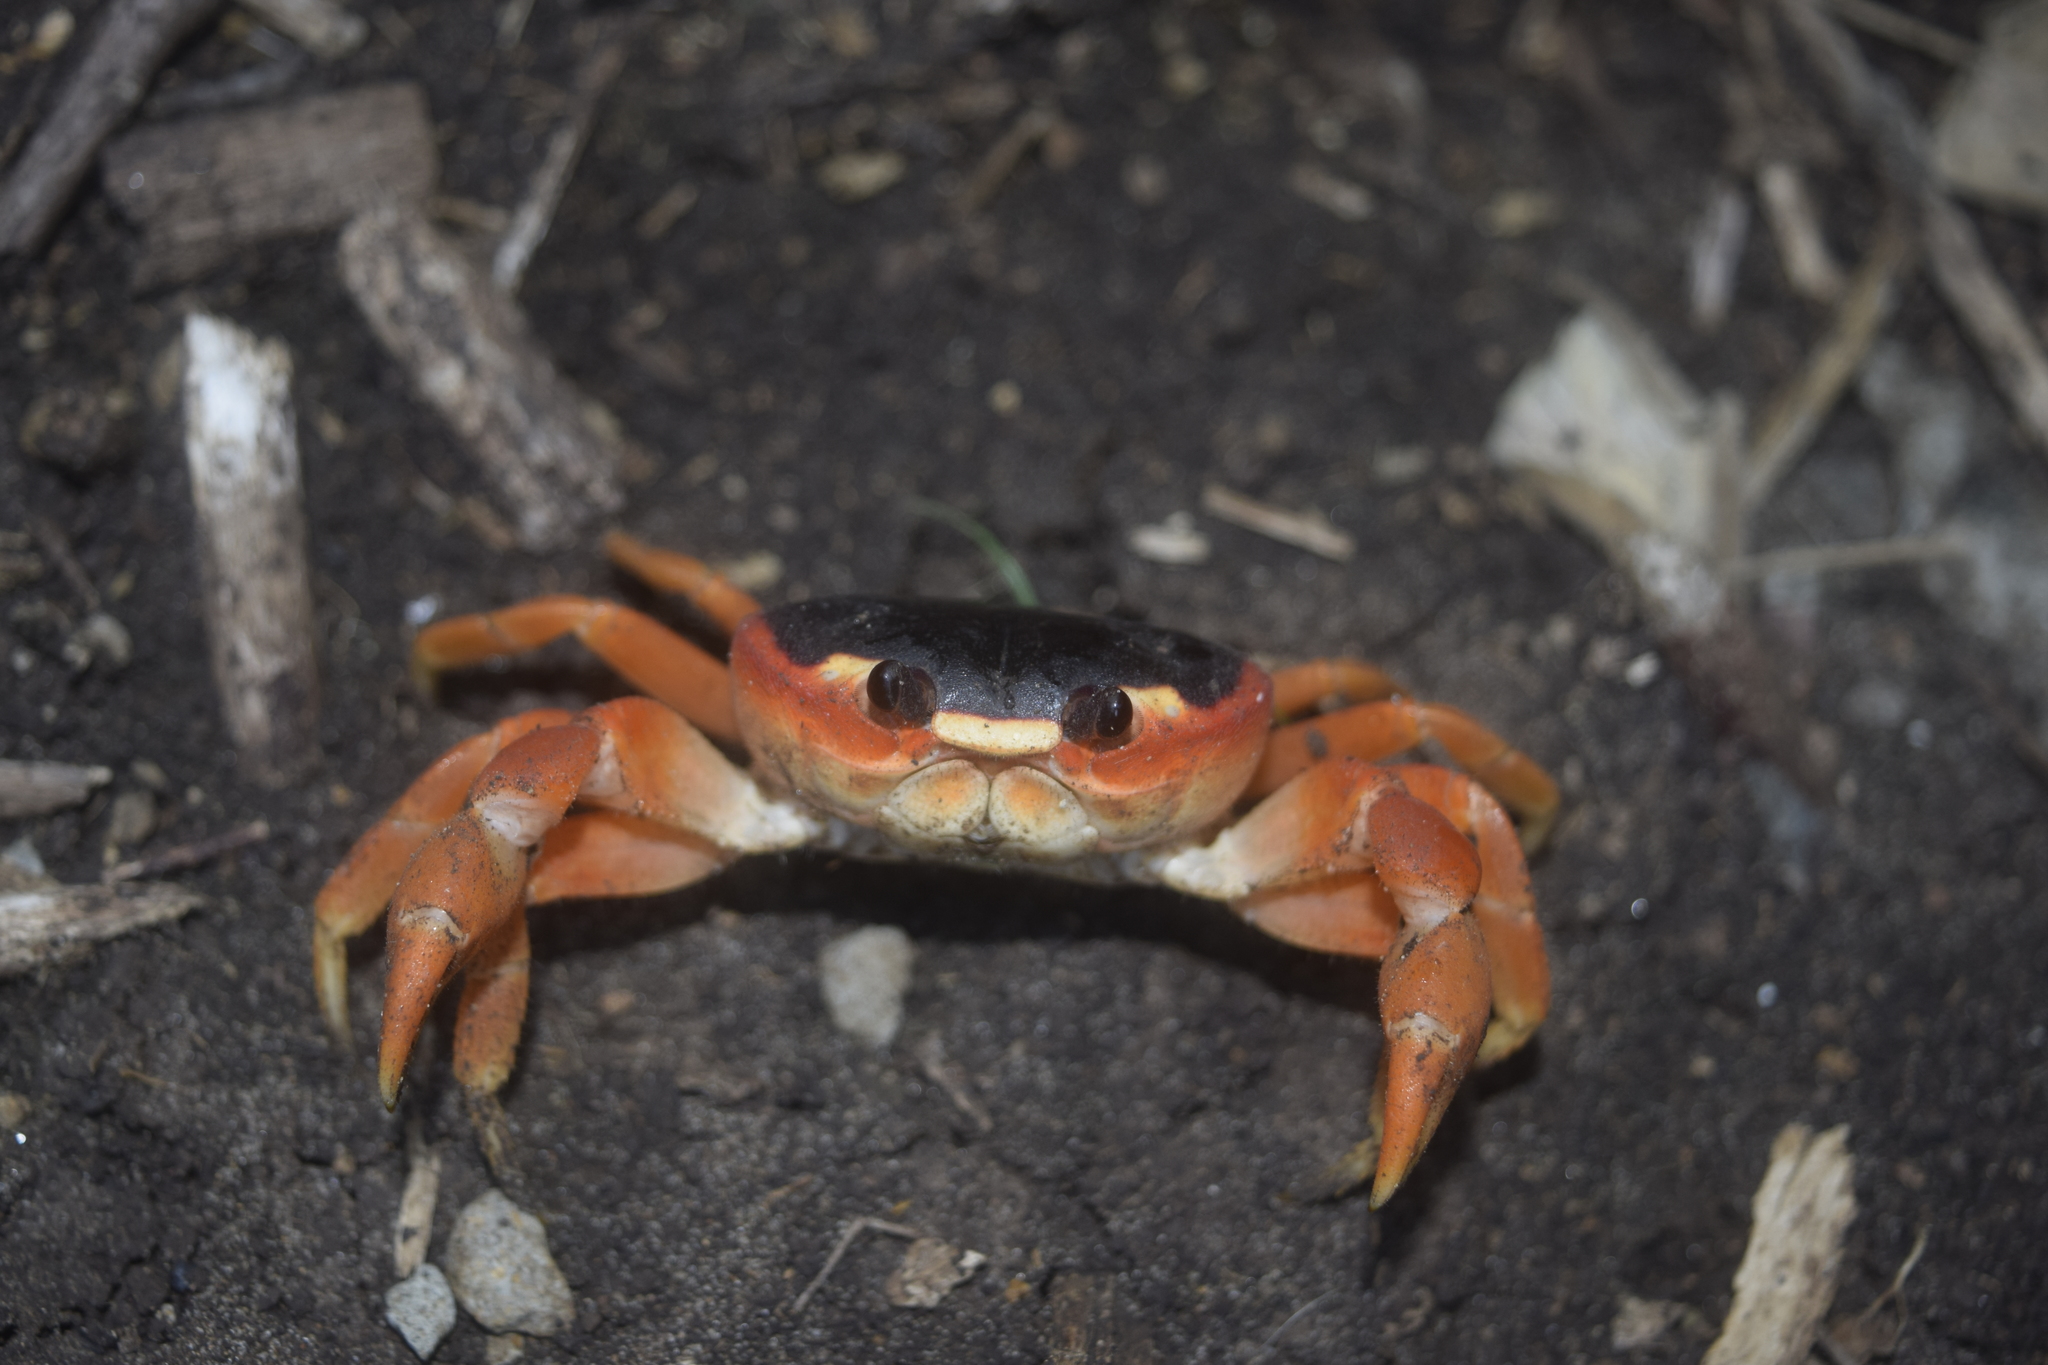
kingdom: Animalia
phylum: Arthropoda
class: Malacostraca
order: Decapoda
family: Gecarcinidae
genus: Gecarcinus
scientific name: Gecarcinus lateralis
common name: Bermuda land crab
